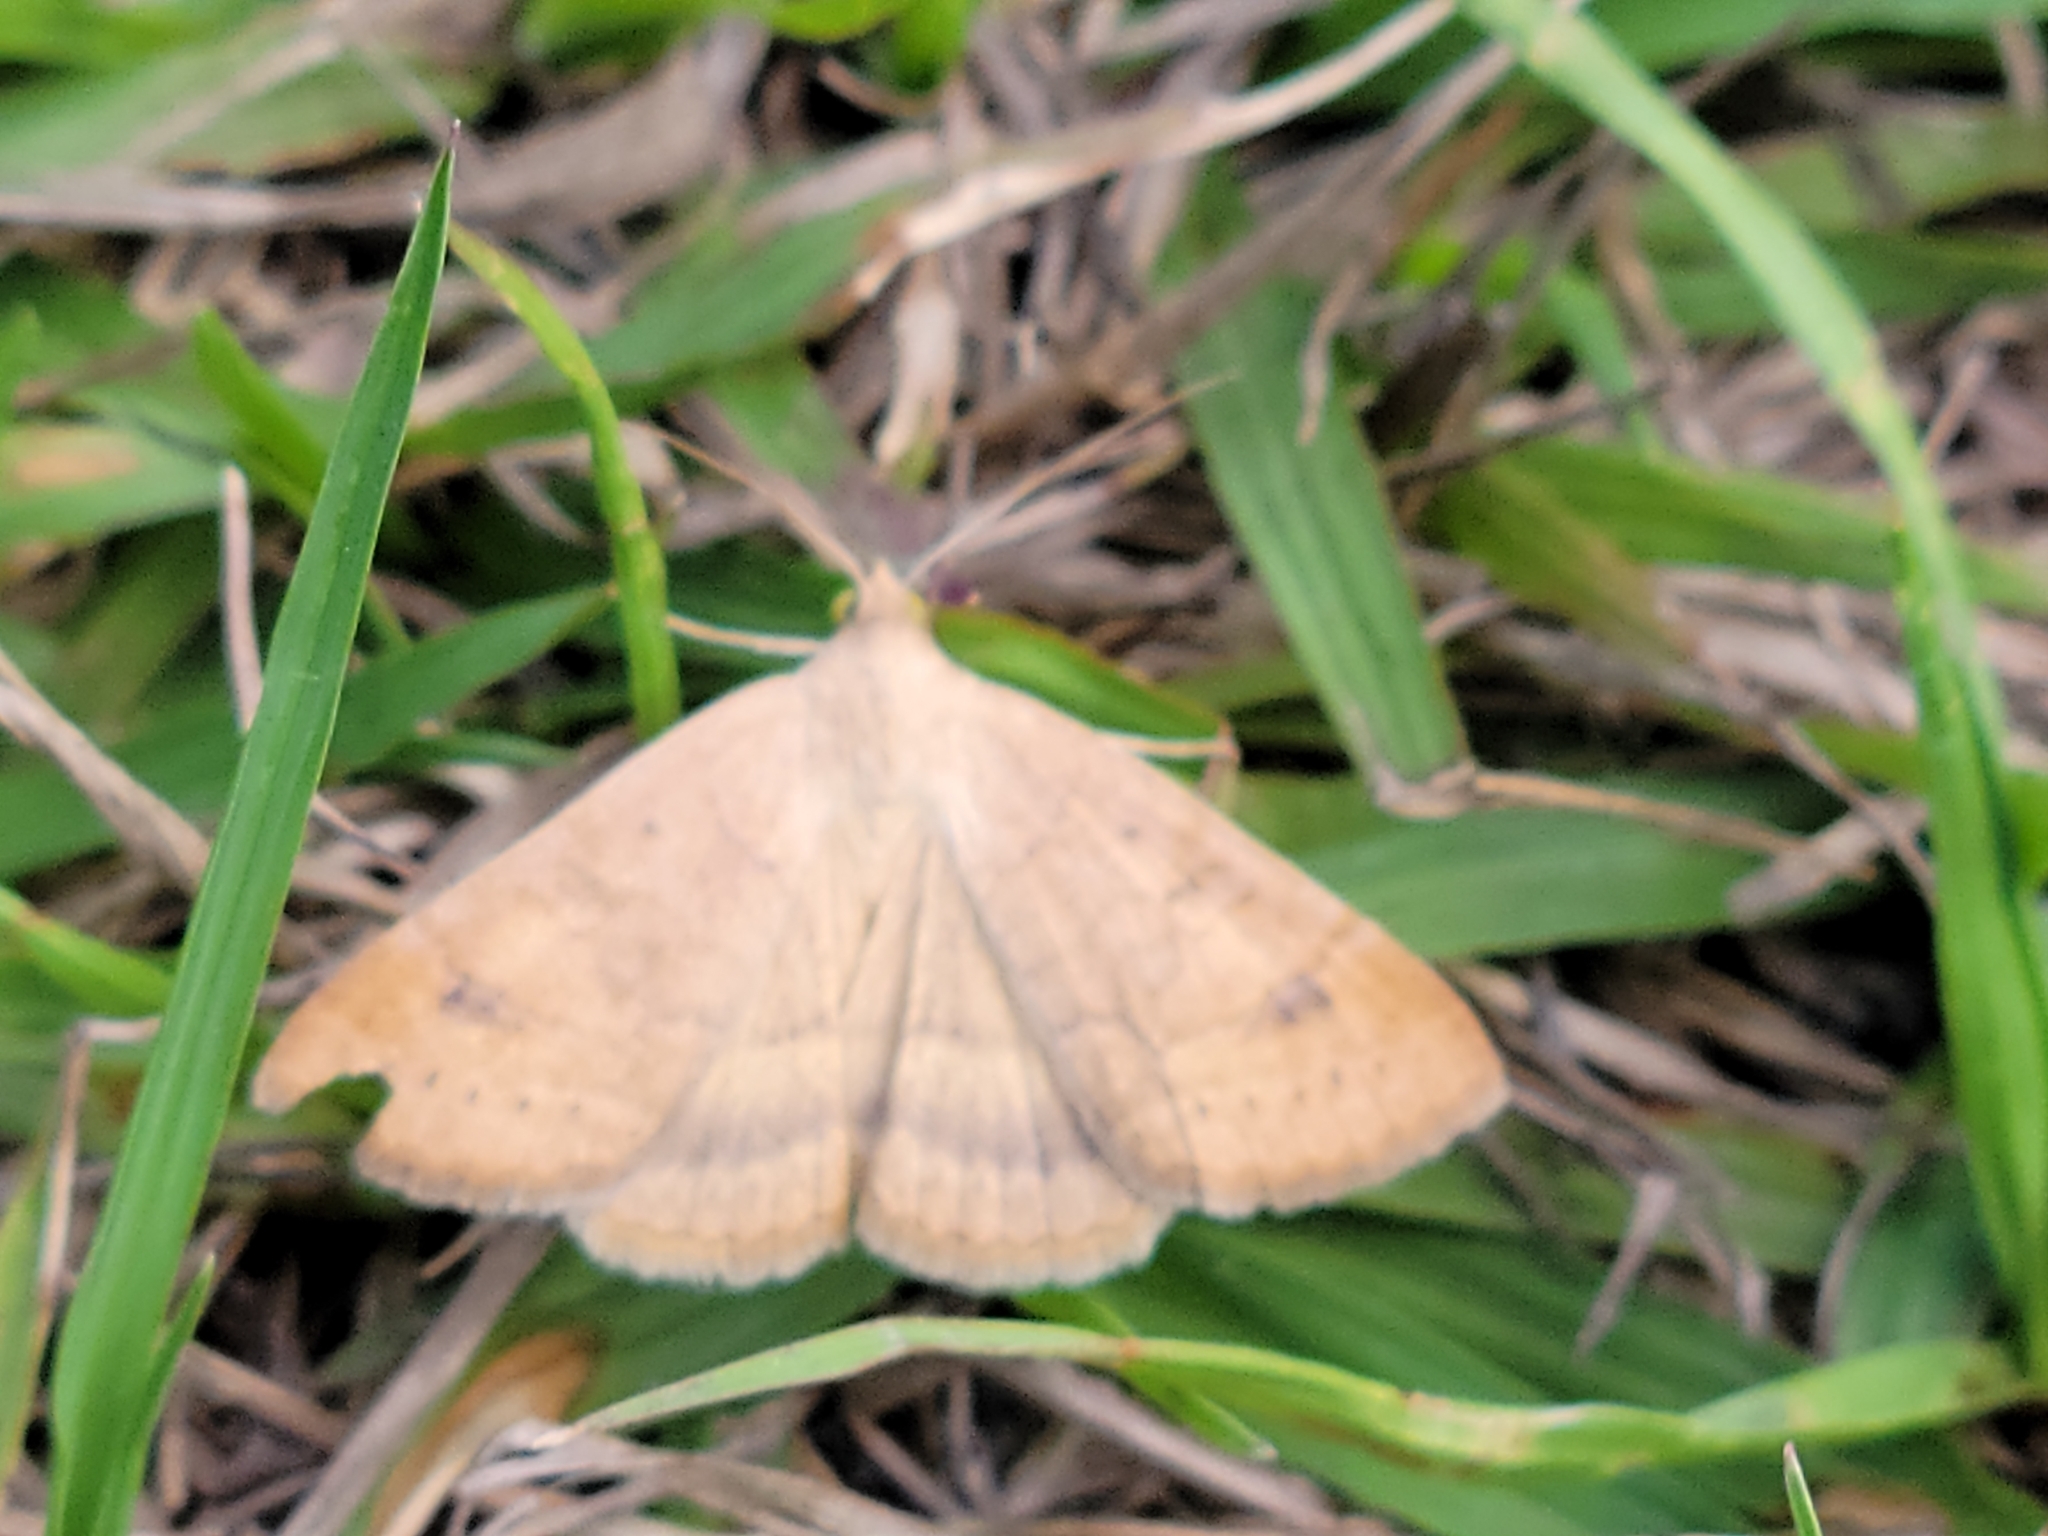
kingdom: Animalia
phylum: Arthropoda
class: Insecta
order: Lepidoptera
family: Erebidae
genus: Caenurgia
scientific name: Caenurgia chloropha
